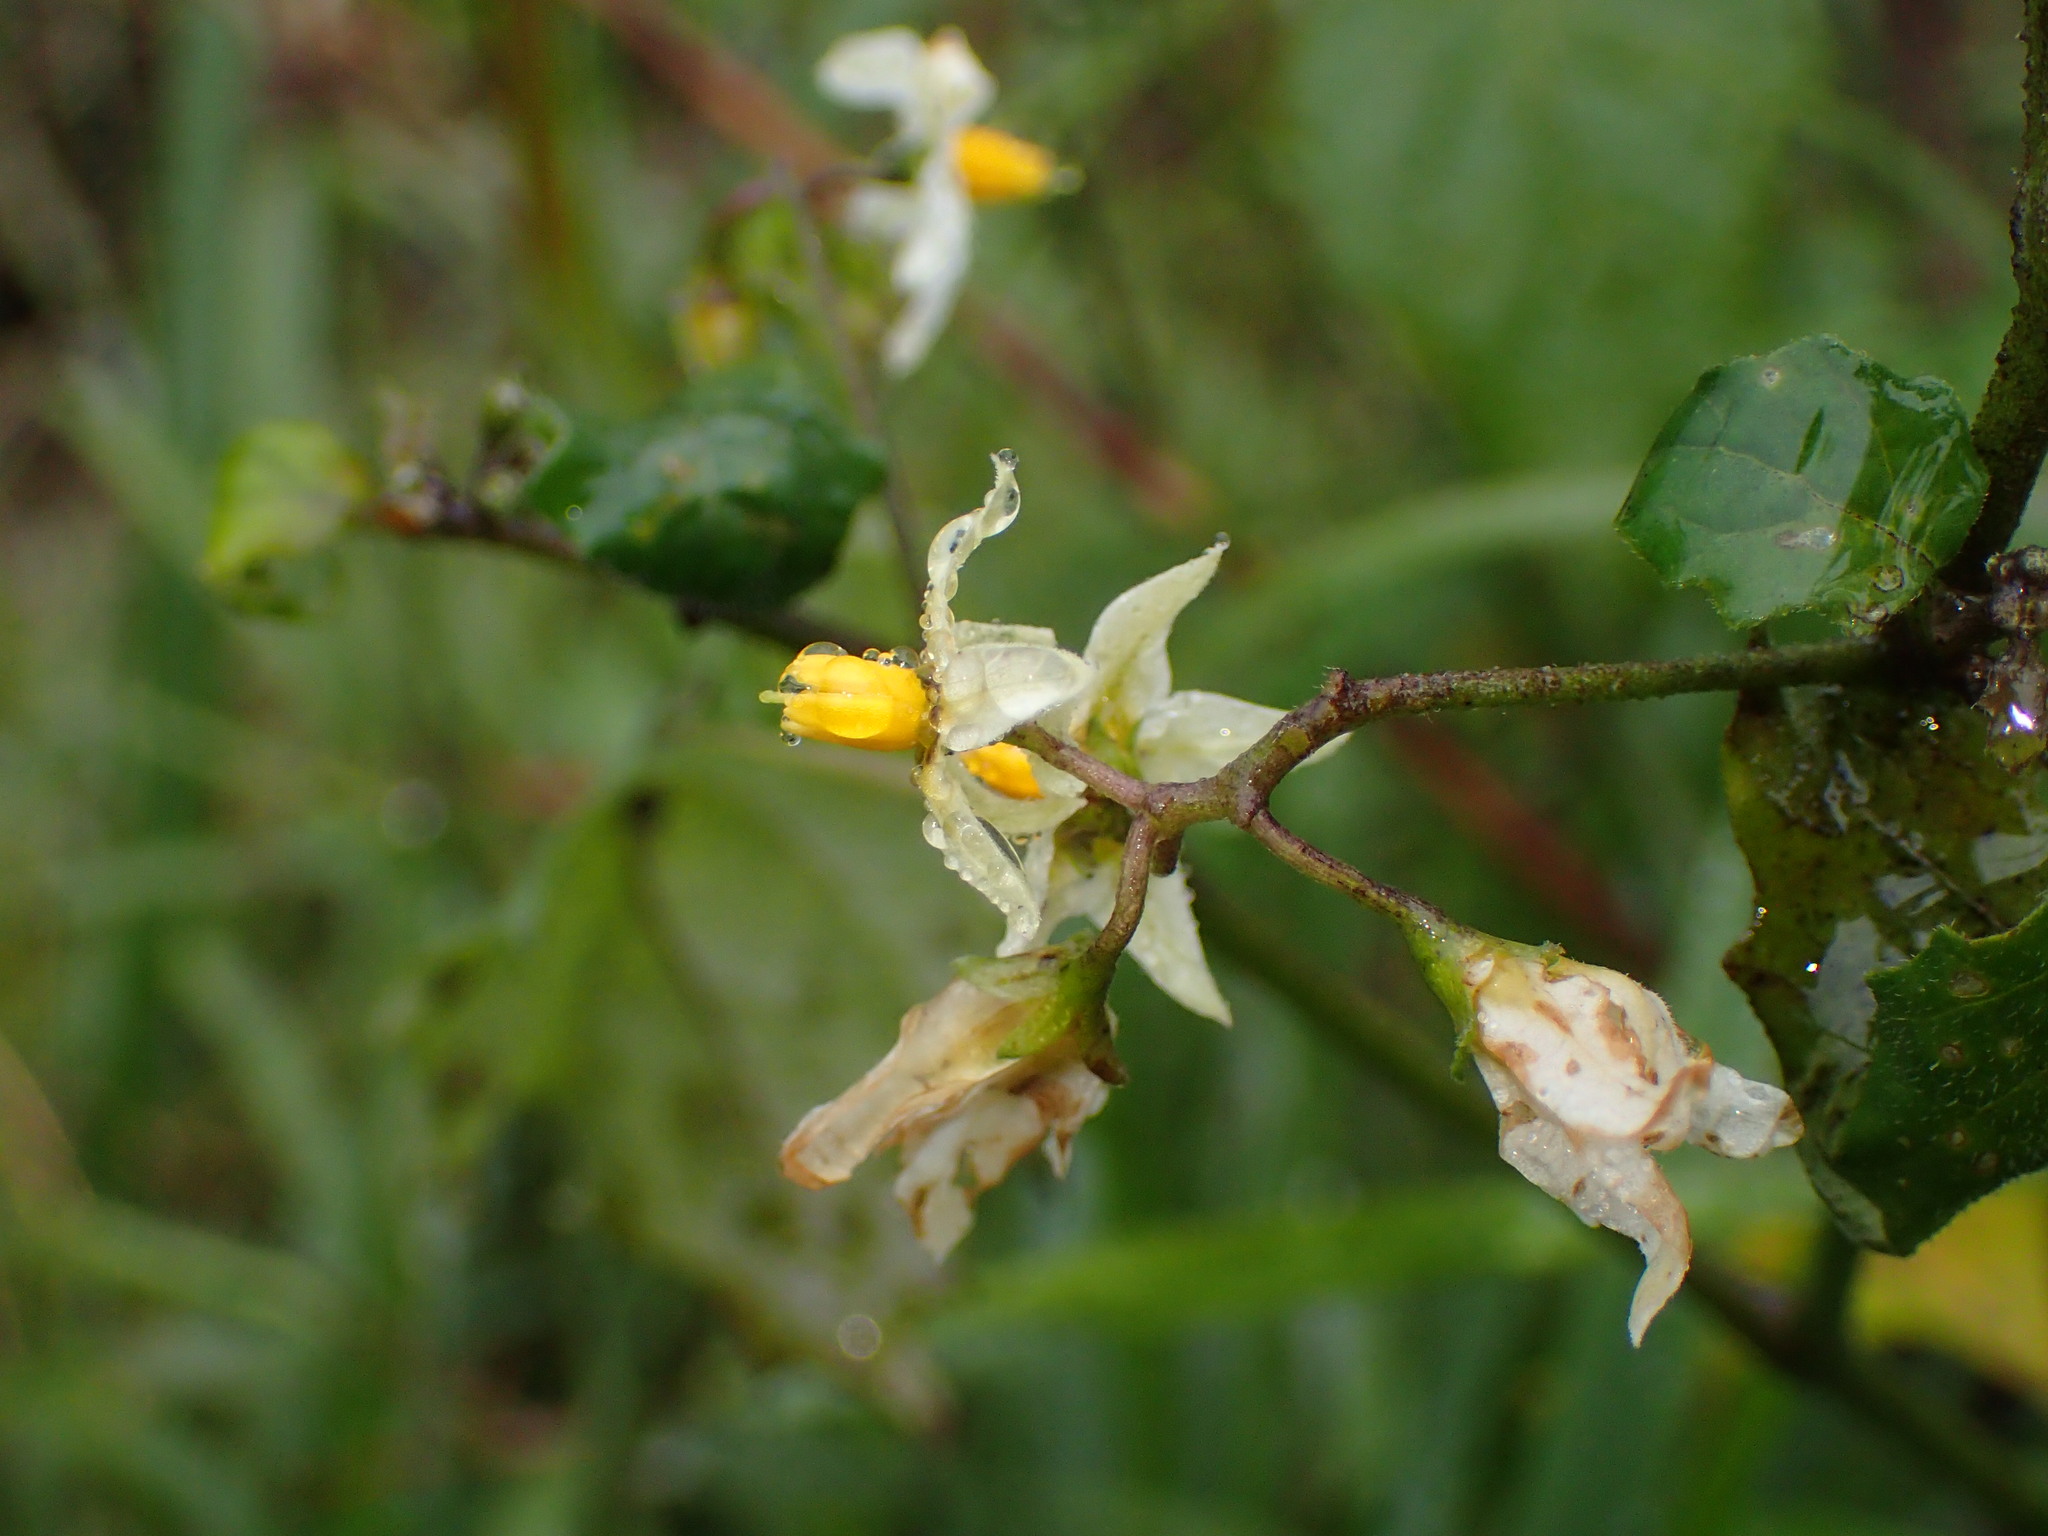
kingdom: Plantae
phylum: Tracheophyta
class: Magnoliopsida
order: Solanales
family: Solanaceae
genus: Solanum
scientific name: Solanum douglasii
